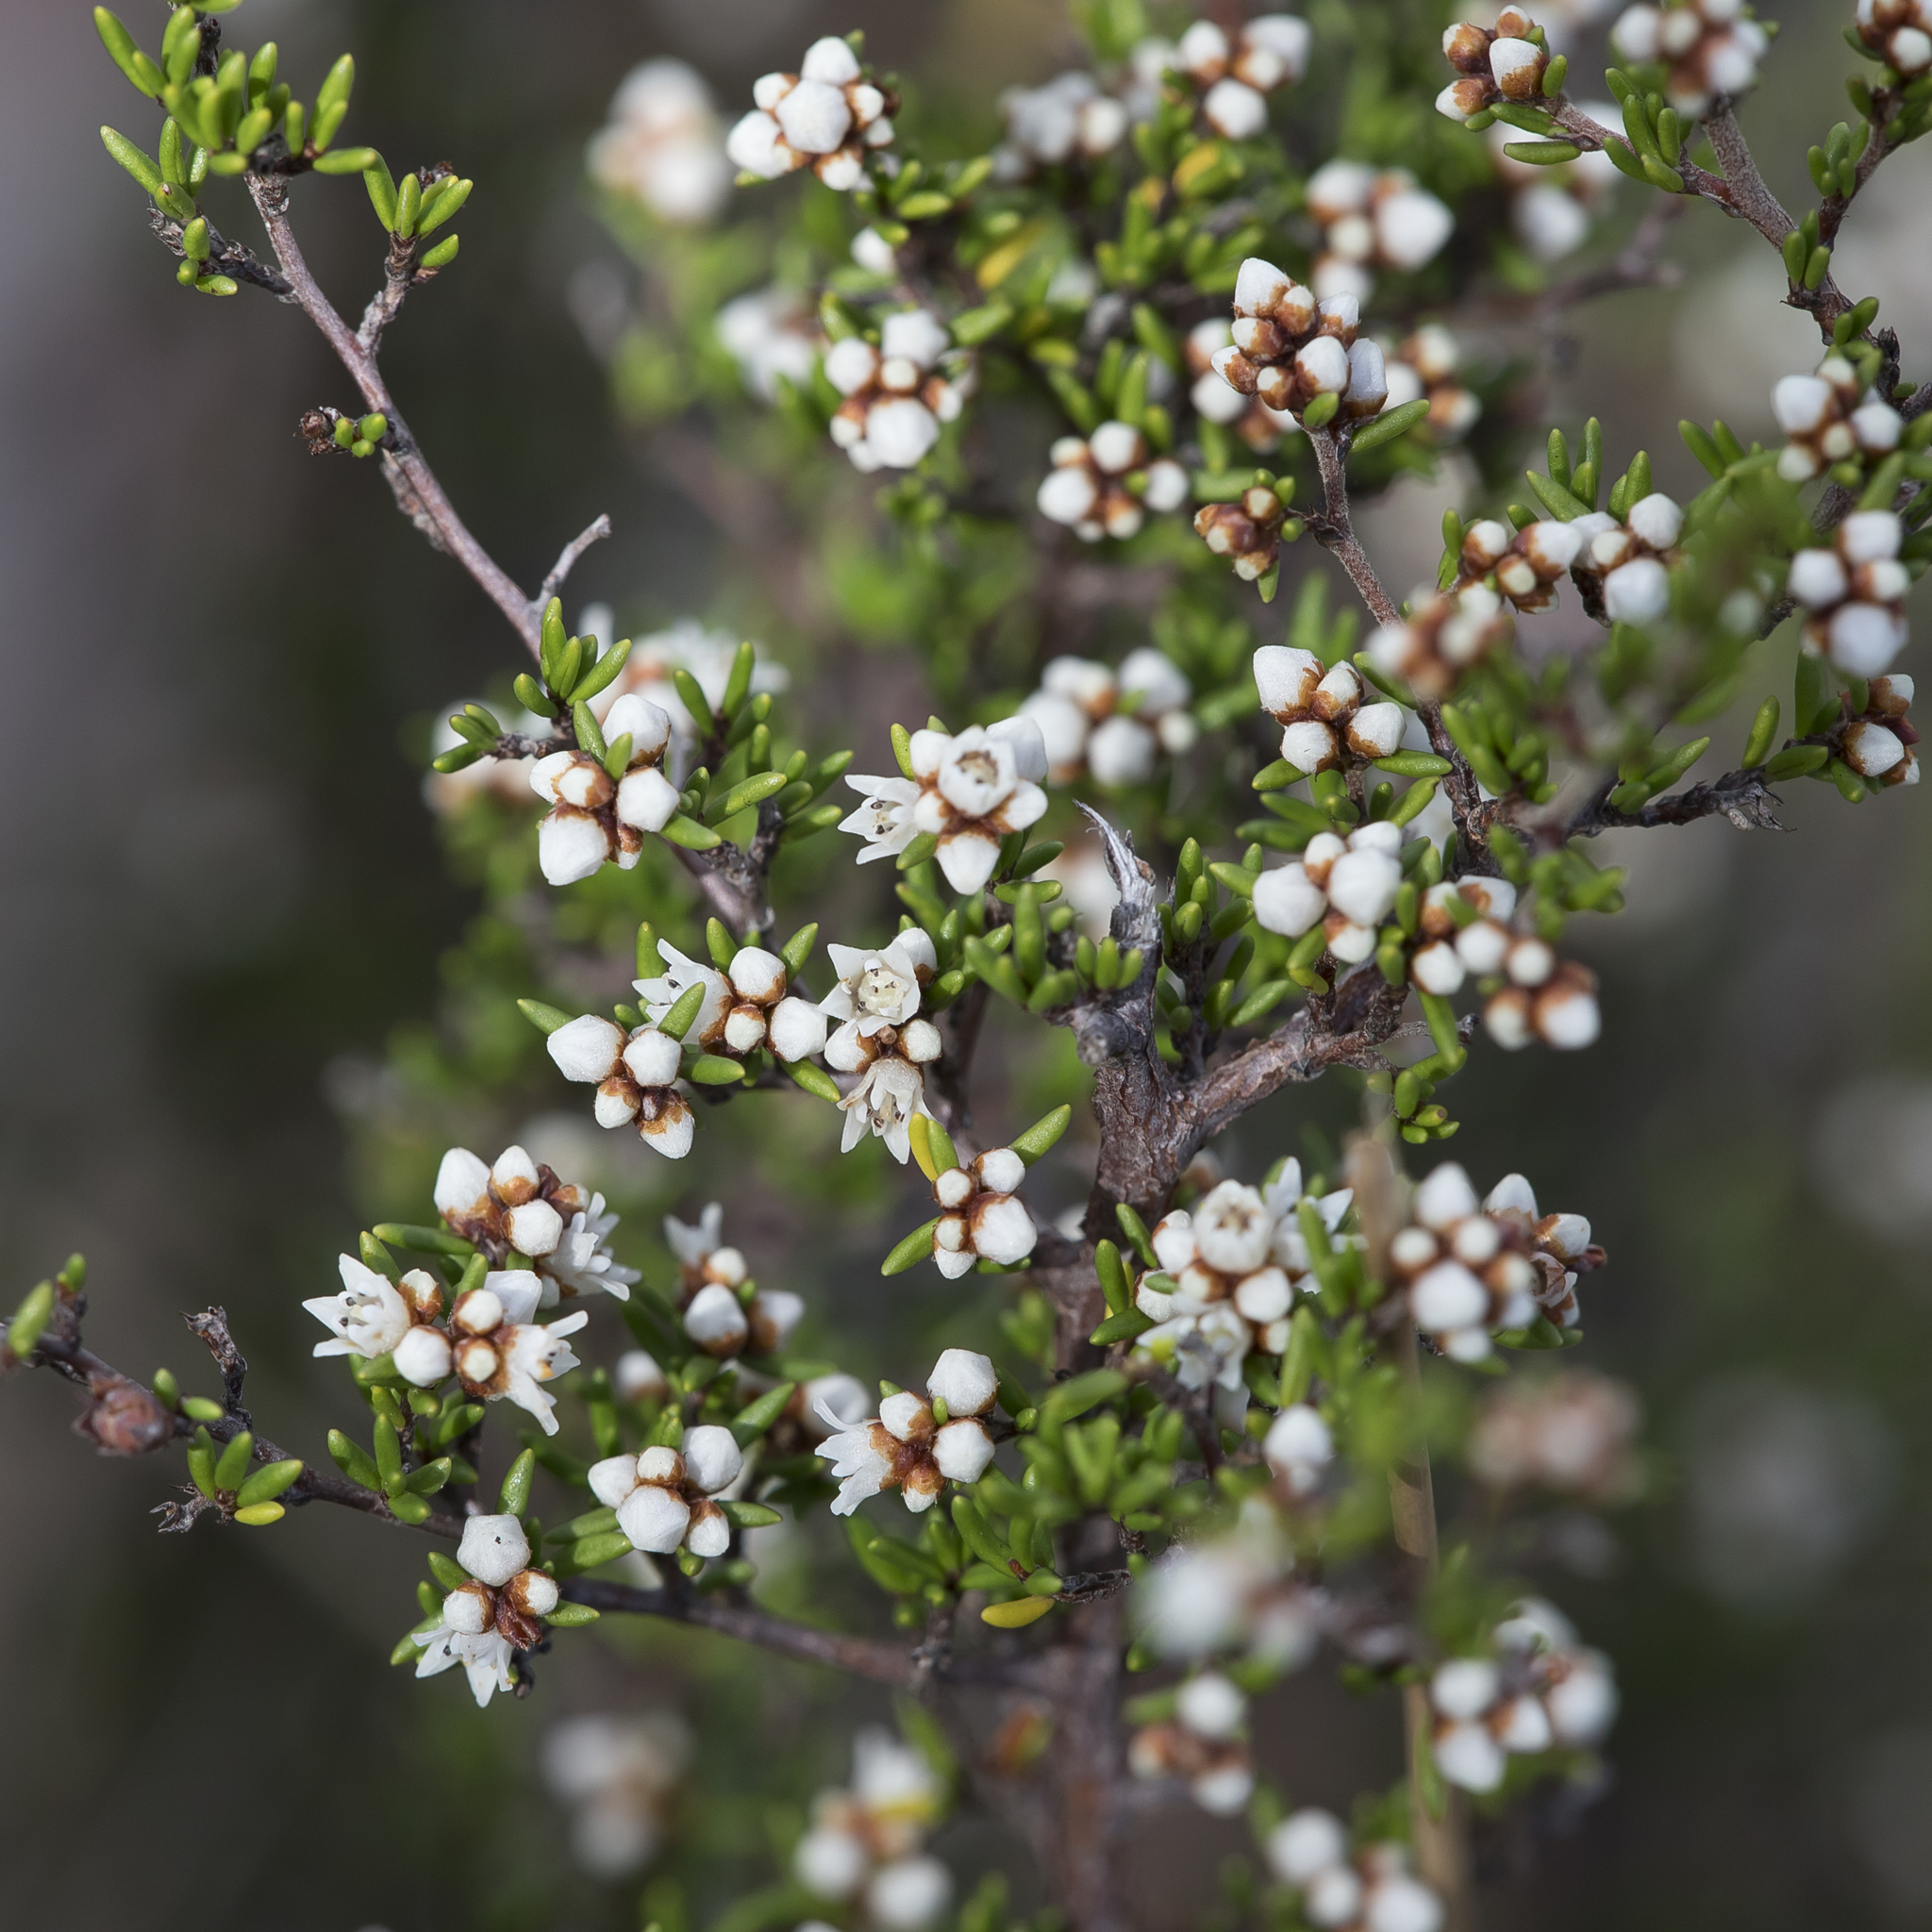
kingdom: Plantae
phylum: Tracheophyta
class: Magnoliopsida
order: Rosales
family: Rhamnaceae
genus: Cryptandra
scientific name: Cryptandra tomentosa
